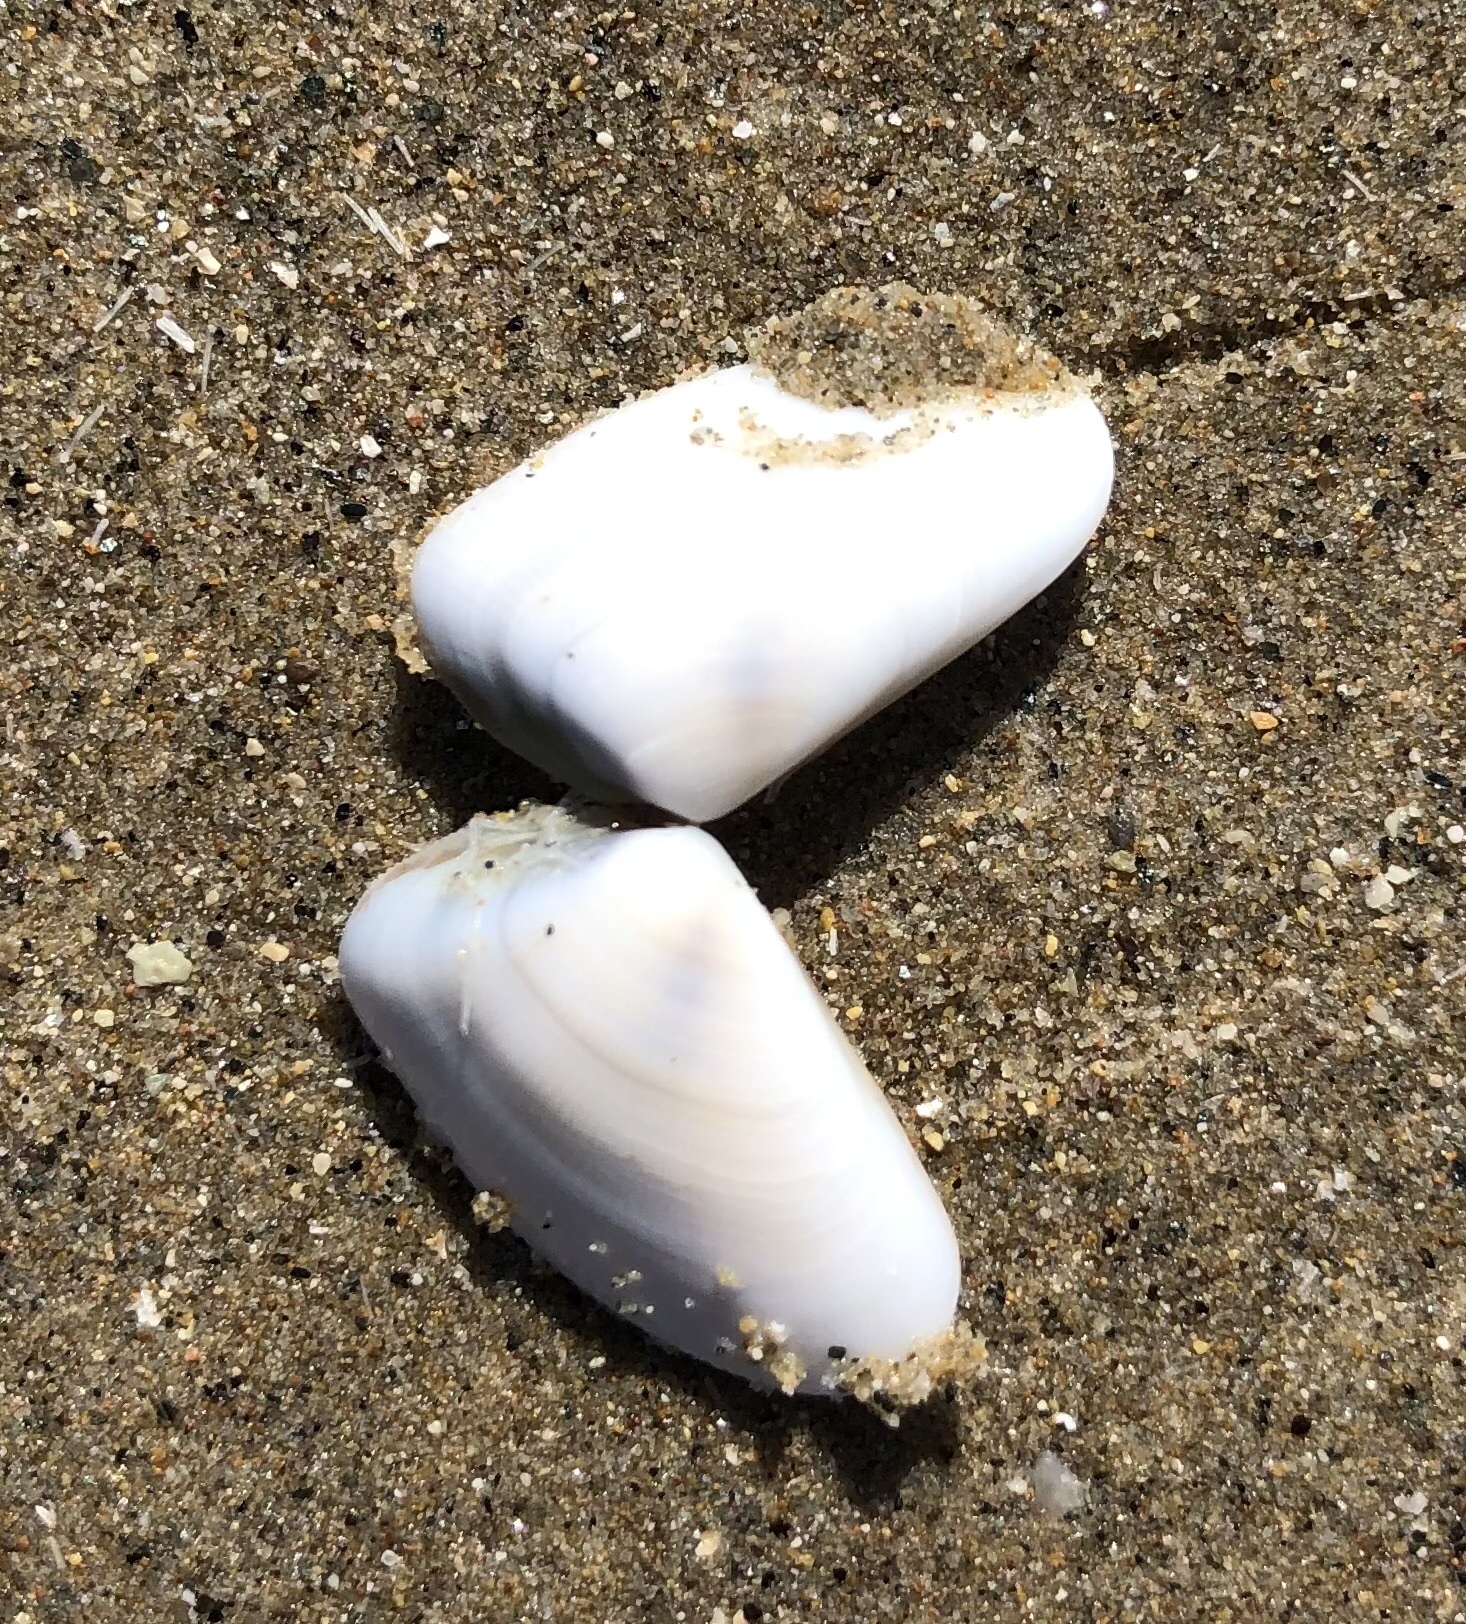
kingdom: Animalia
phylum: Mollusca
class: Bivalvia
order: Cardiida
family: Donacidae
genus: Donax
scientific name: Donax gouldii
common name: Gould beanclam
